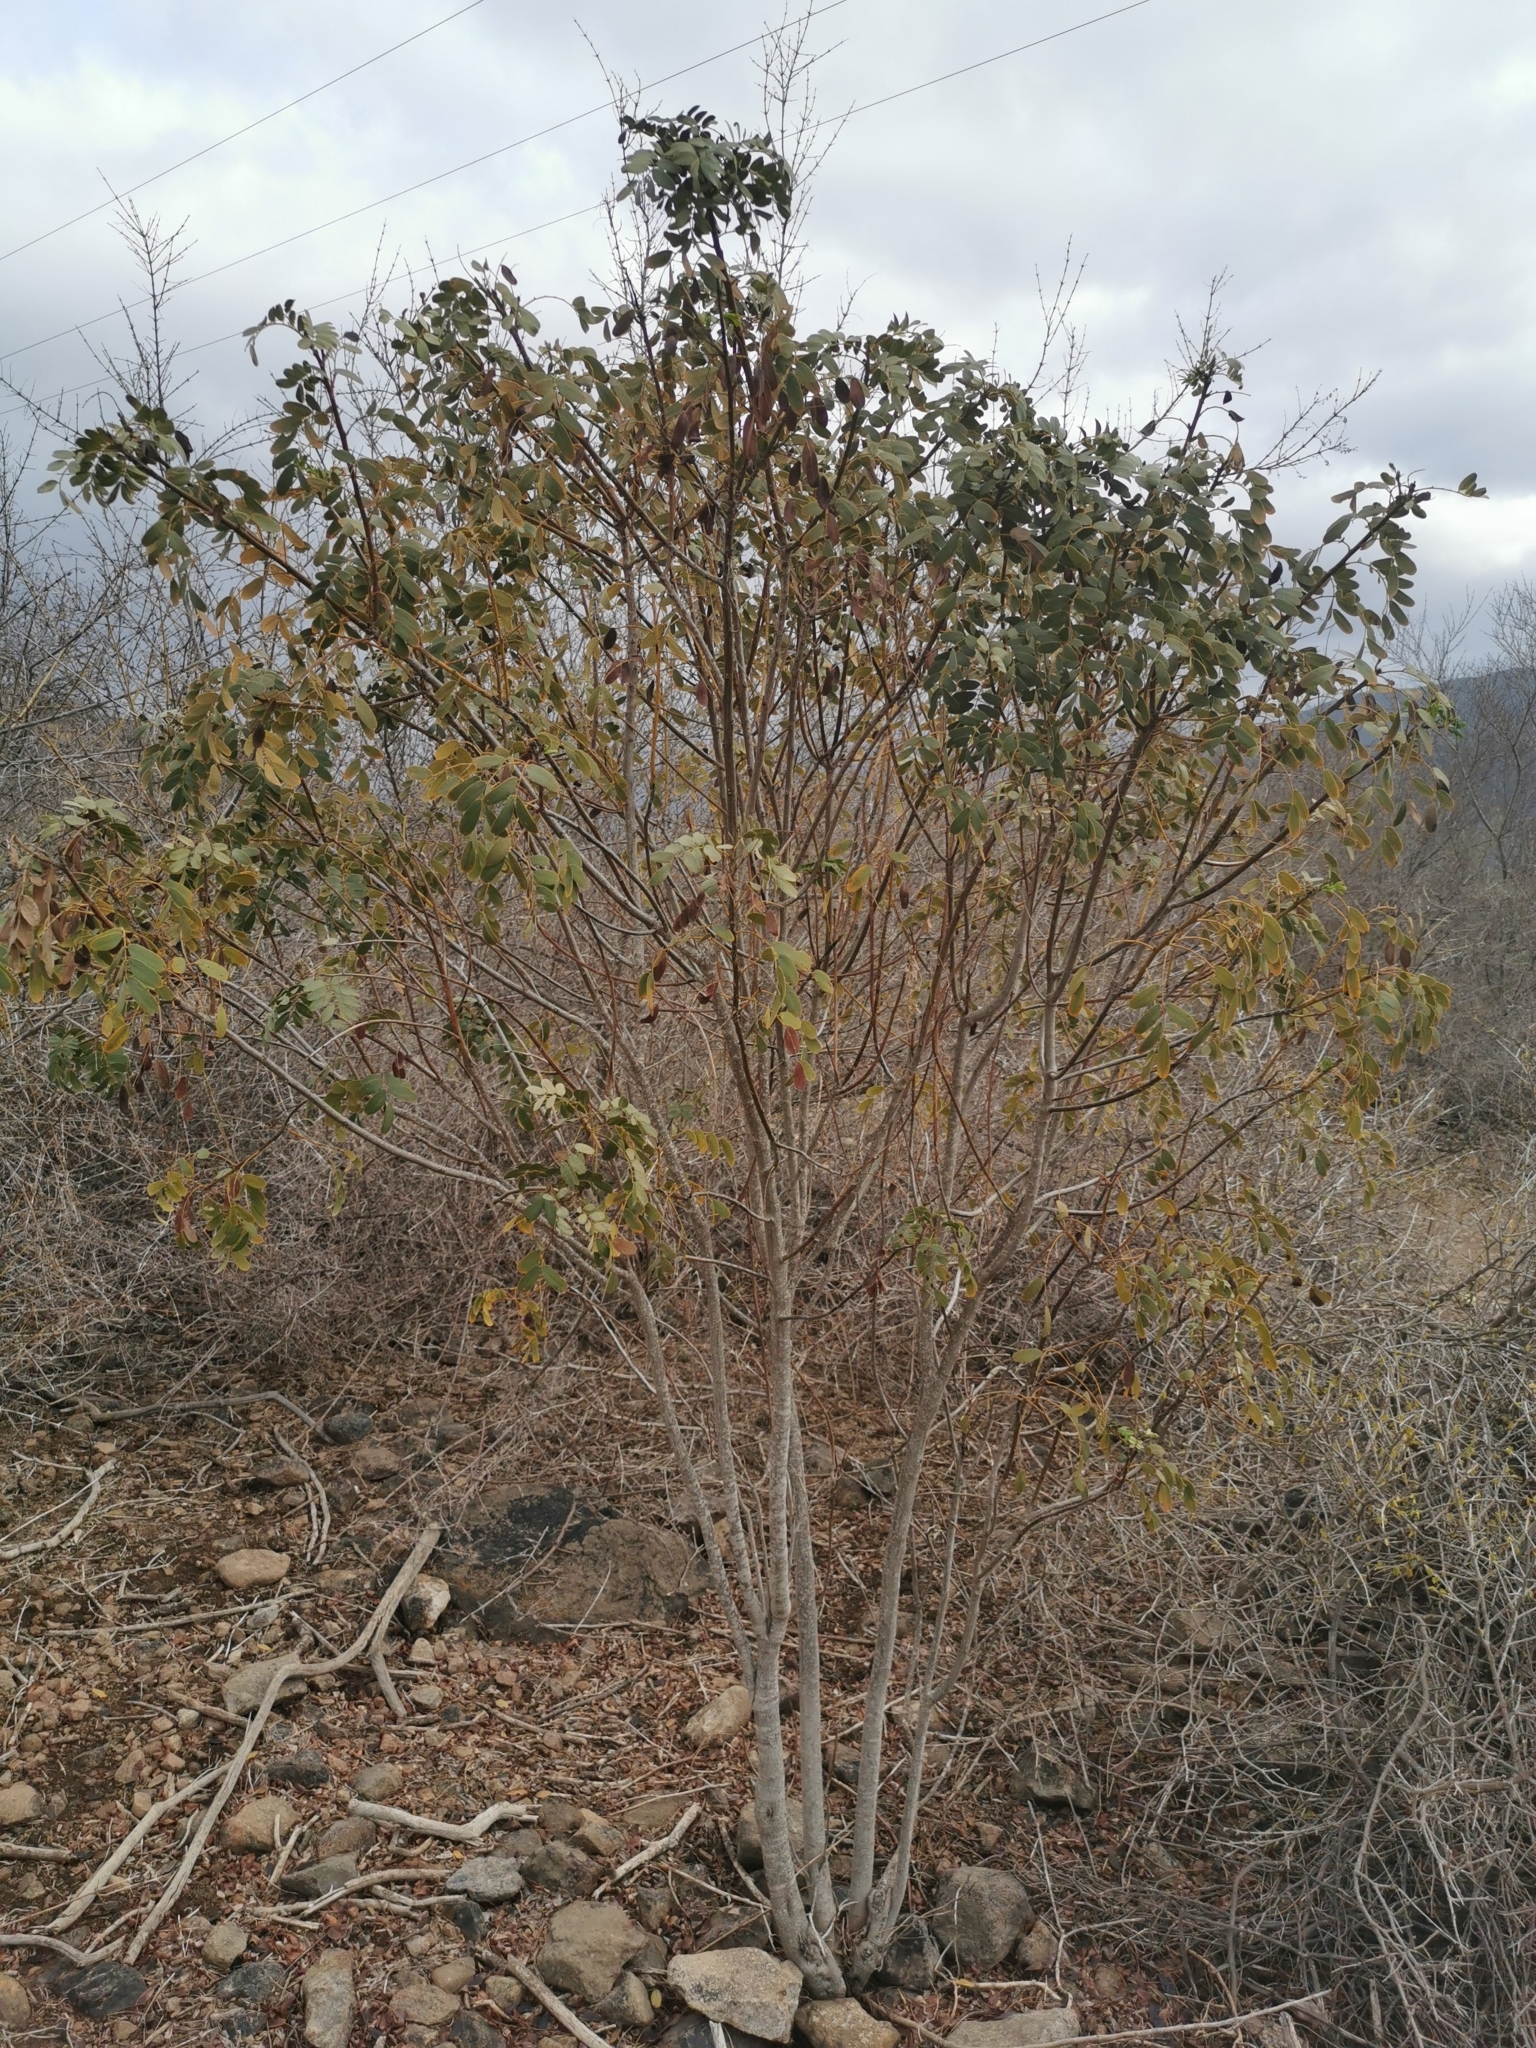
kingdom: Plantae
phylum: Tracheophyta
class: Magnoliopsida
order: Fabales
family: Fabaceae
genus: Senna
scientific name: Senna candolleana
